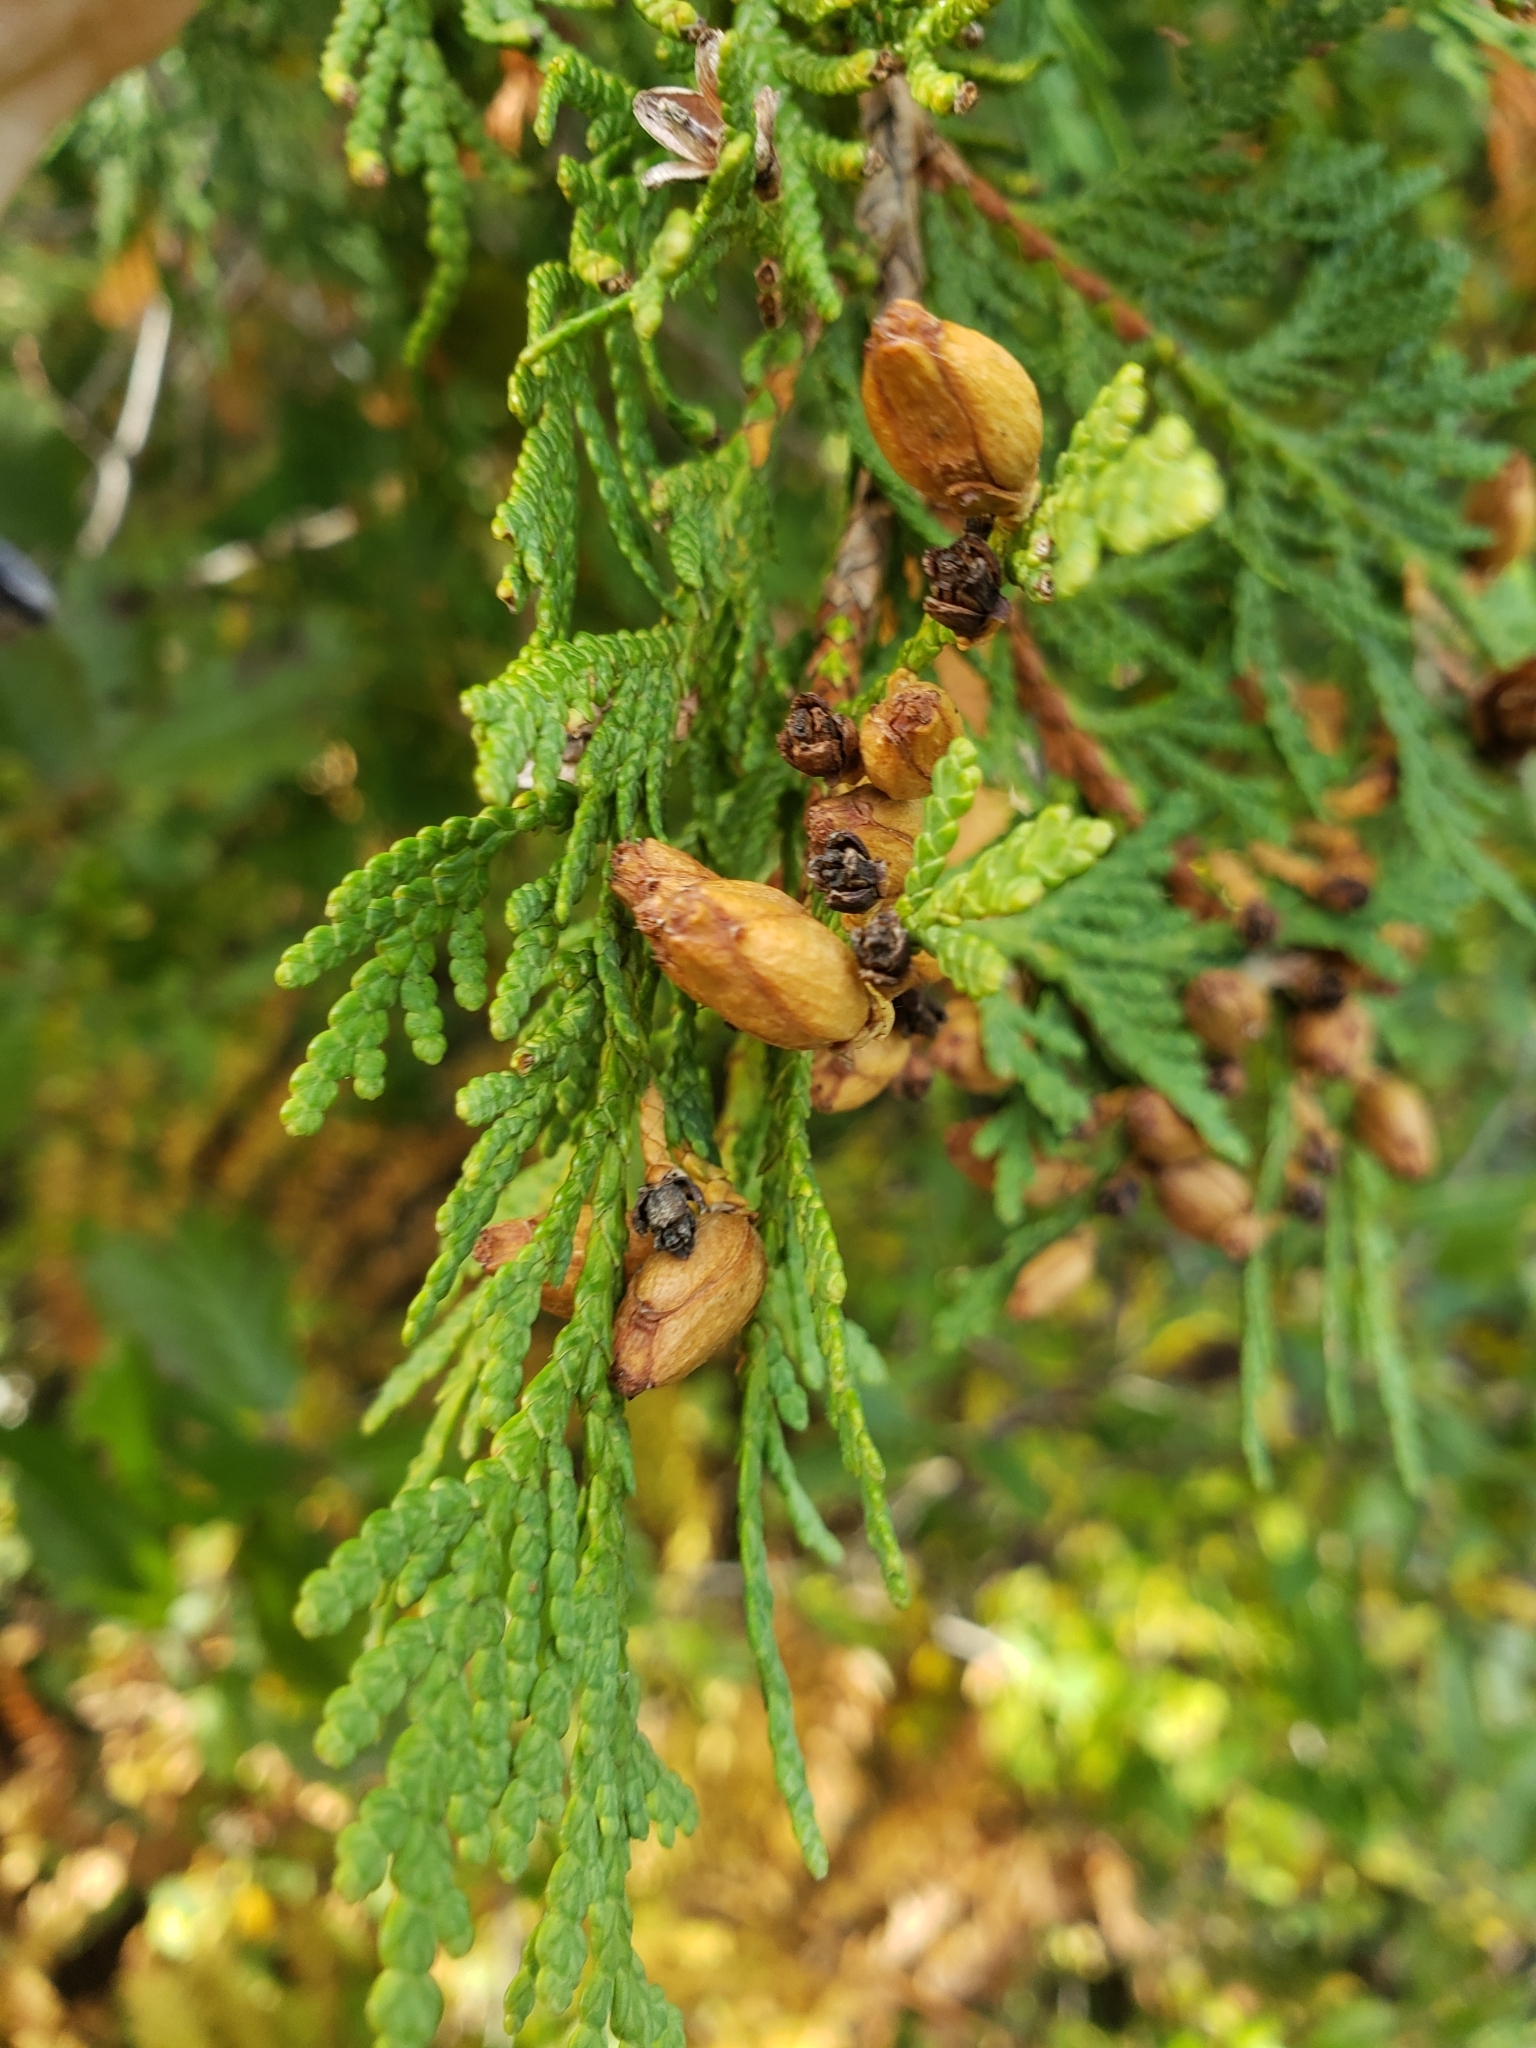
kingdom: Plantae
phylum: Tracheophyta
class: Pinopsida
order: Pinales
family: Cupressaceae
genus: Thuja
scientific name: Thuja occidentalis
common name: Northern white-cedar
